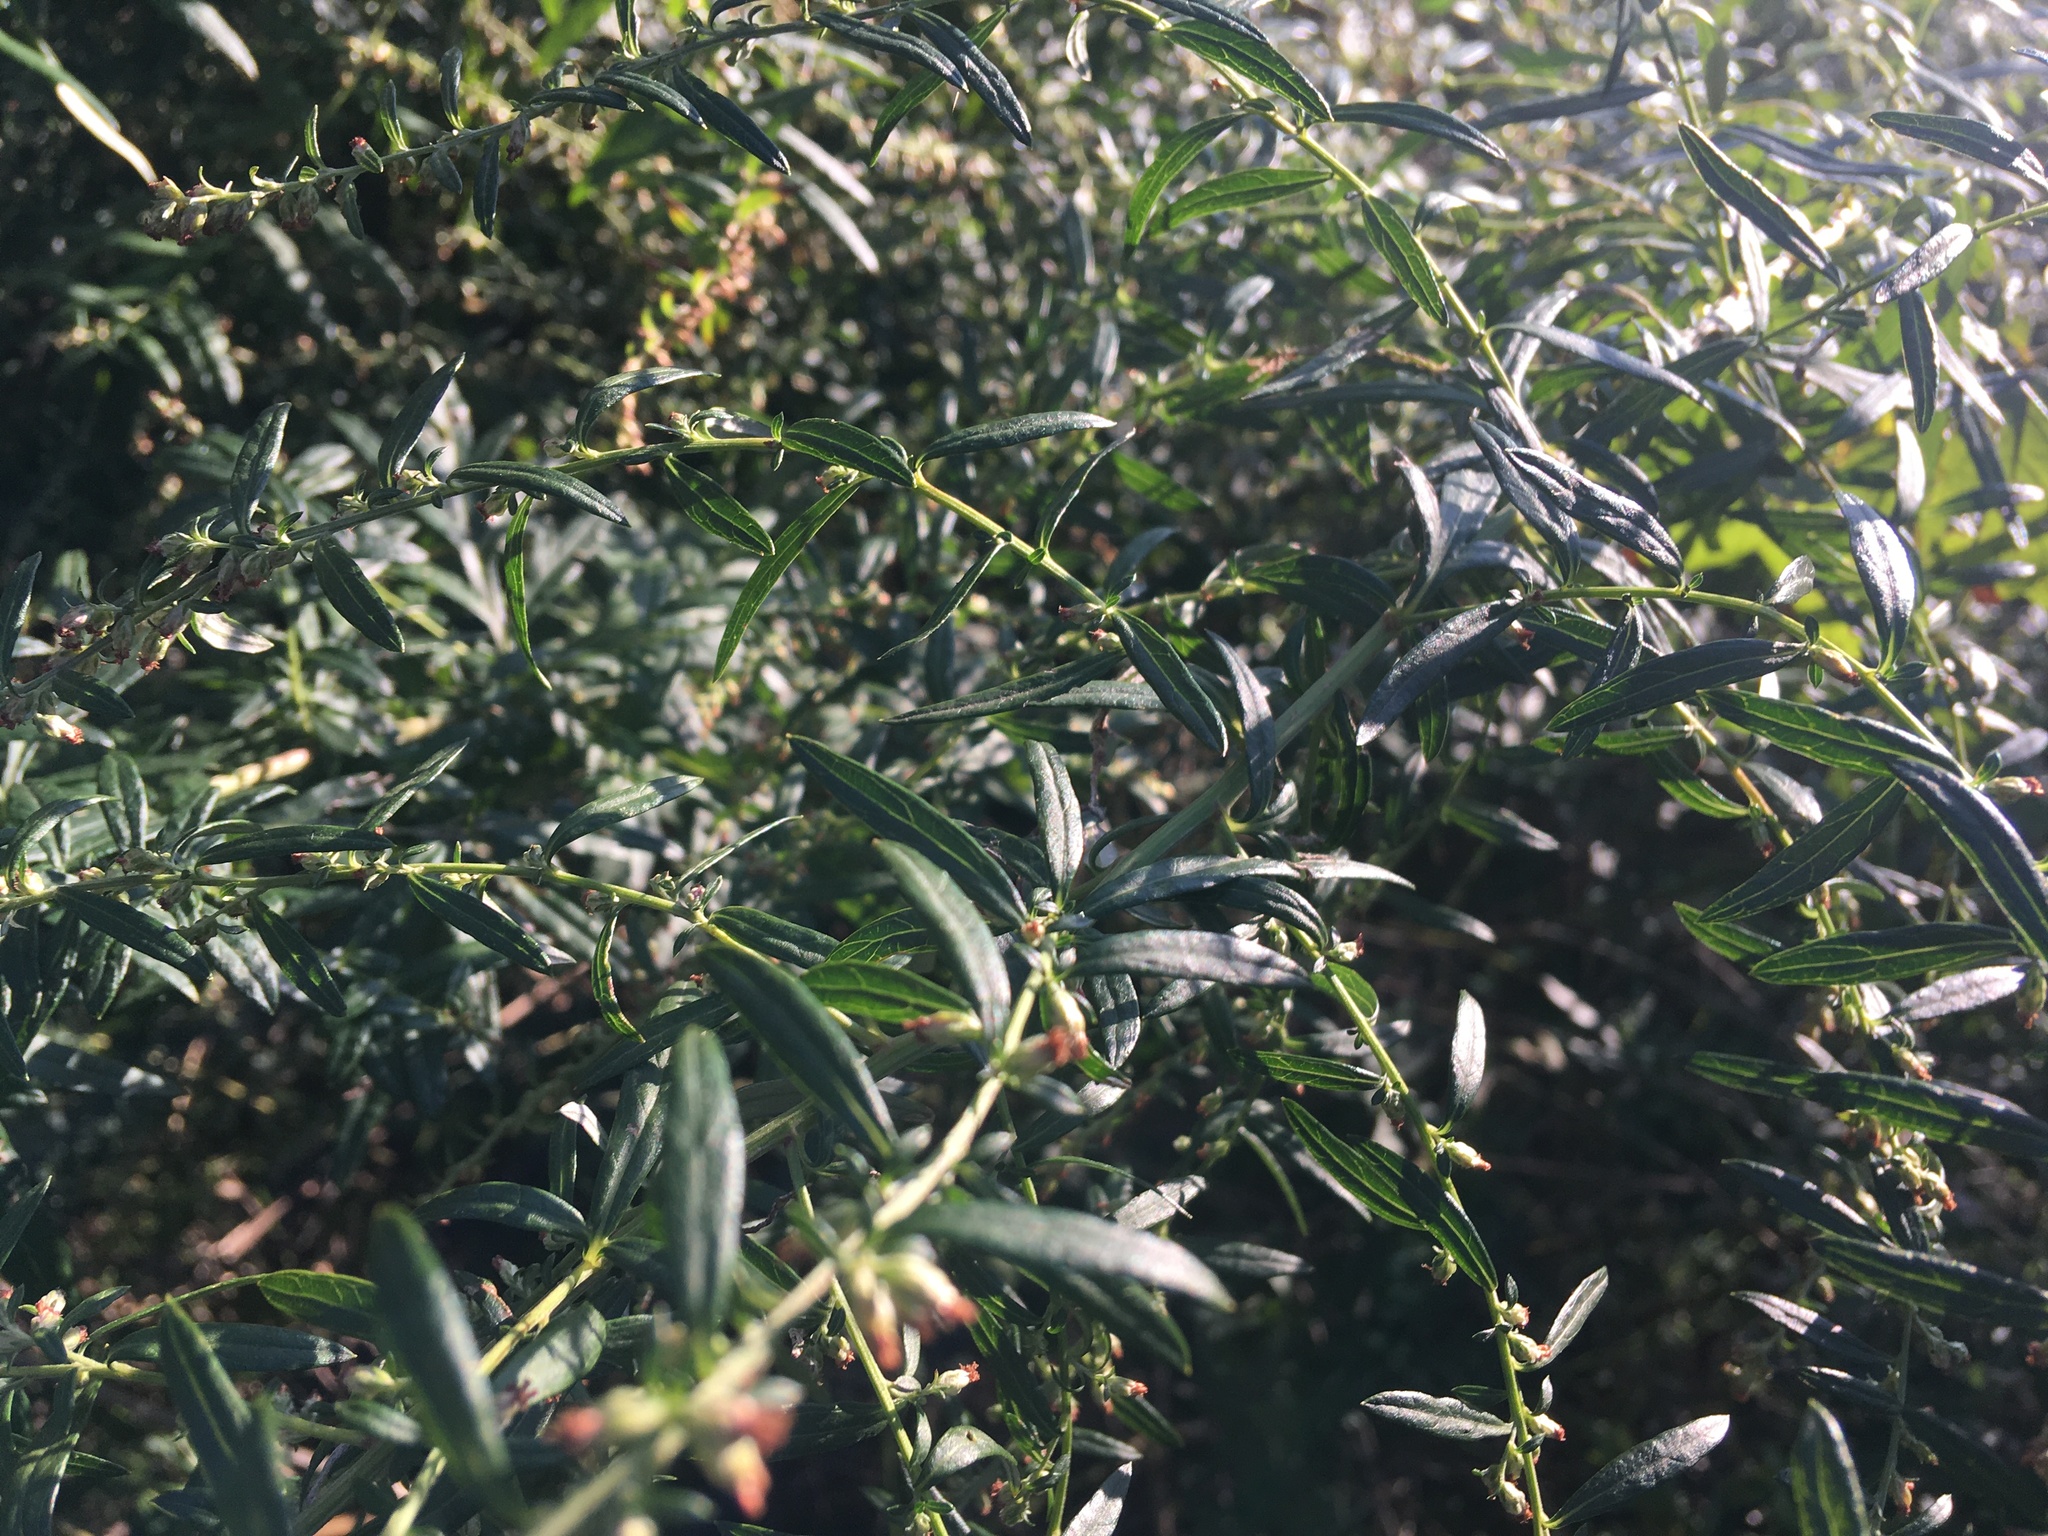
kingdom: Plantae
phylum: Tracheophyta
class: Magnoliopsida
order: Asterales
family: Asteraceae
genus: Artemisia
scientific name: Artemisia vulgaris
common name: Mugwort
